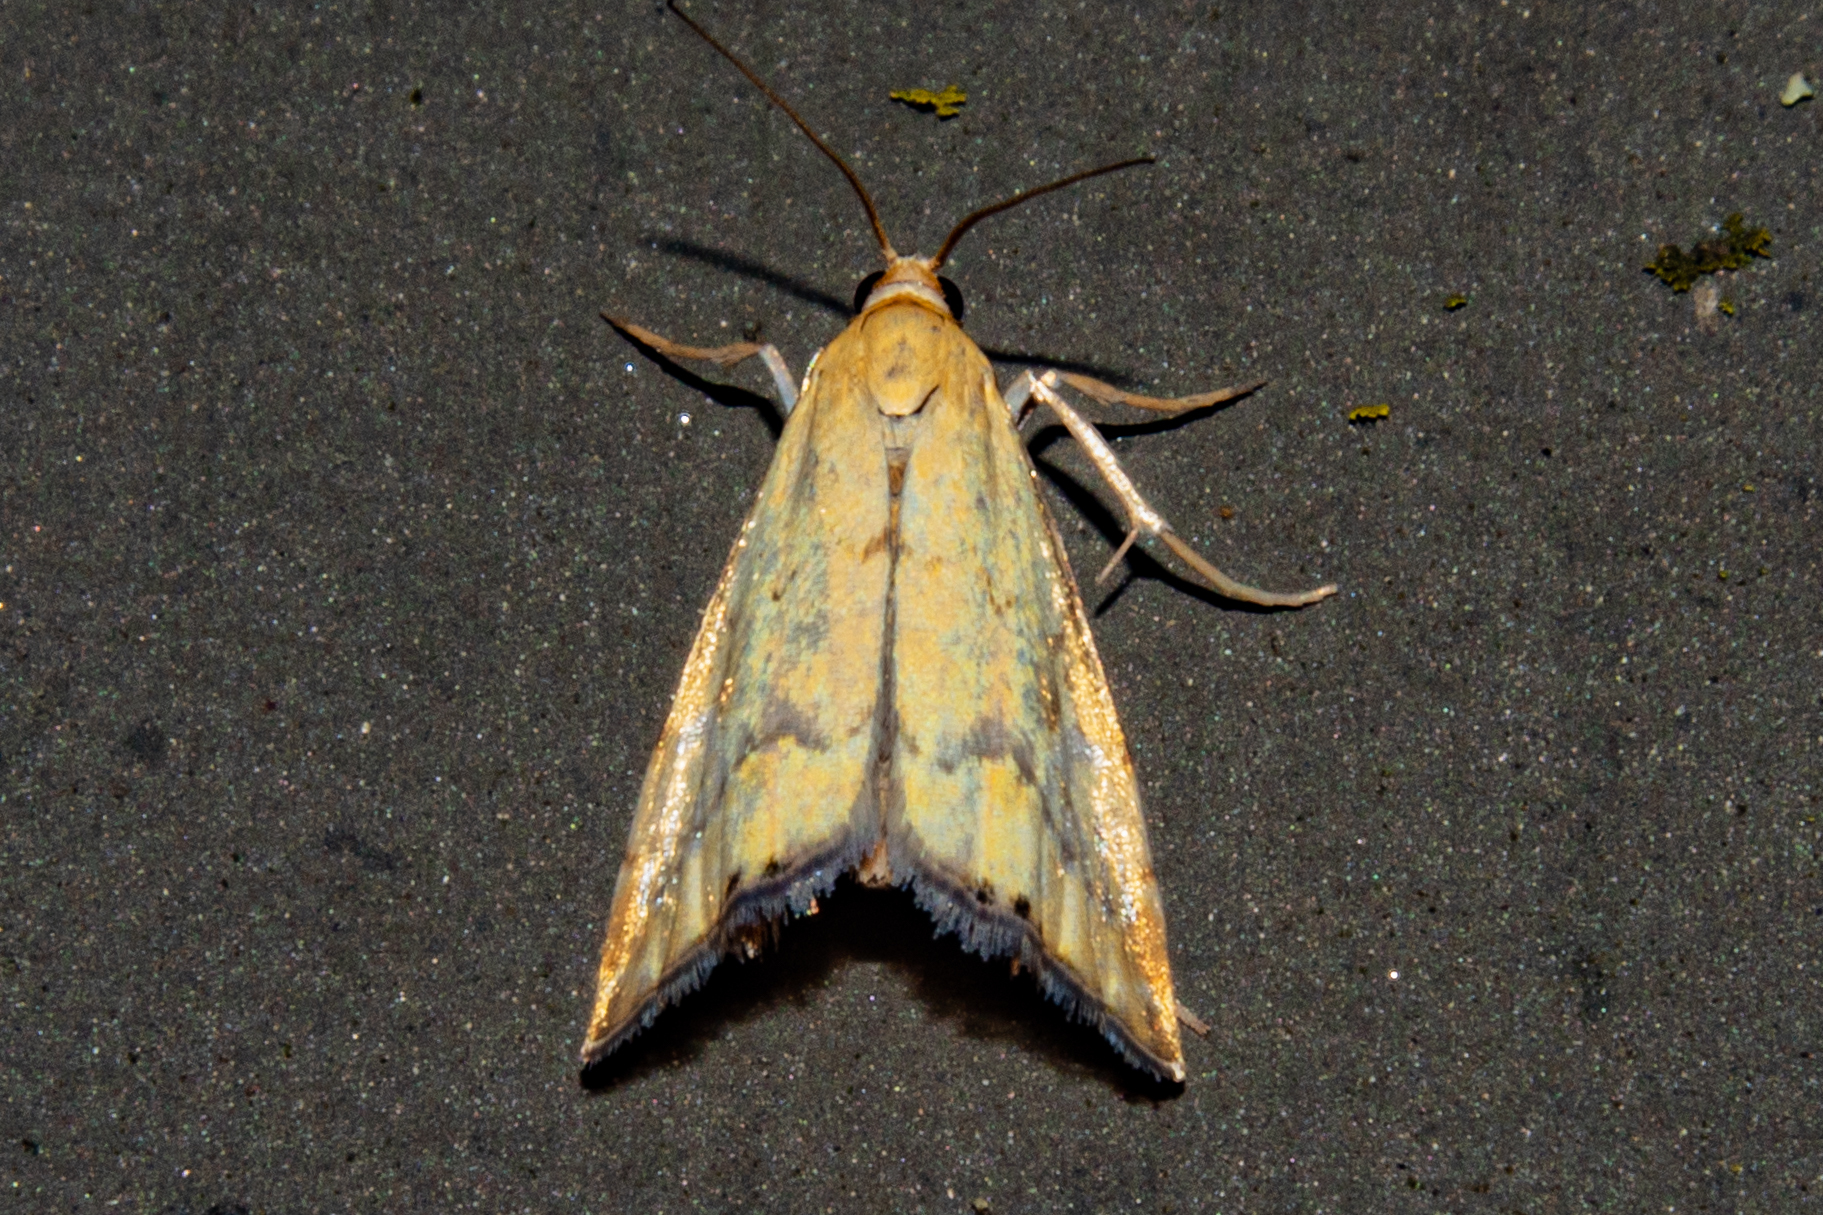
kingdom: Animalia
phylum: Arthropoda
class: Insecta
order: Lepidoptera
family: Crambidae
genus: Glaucocharis
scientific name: Glaucocharis lepidella
